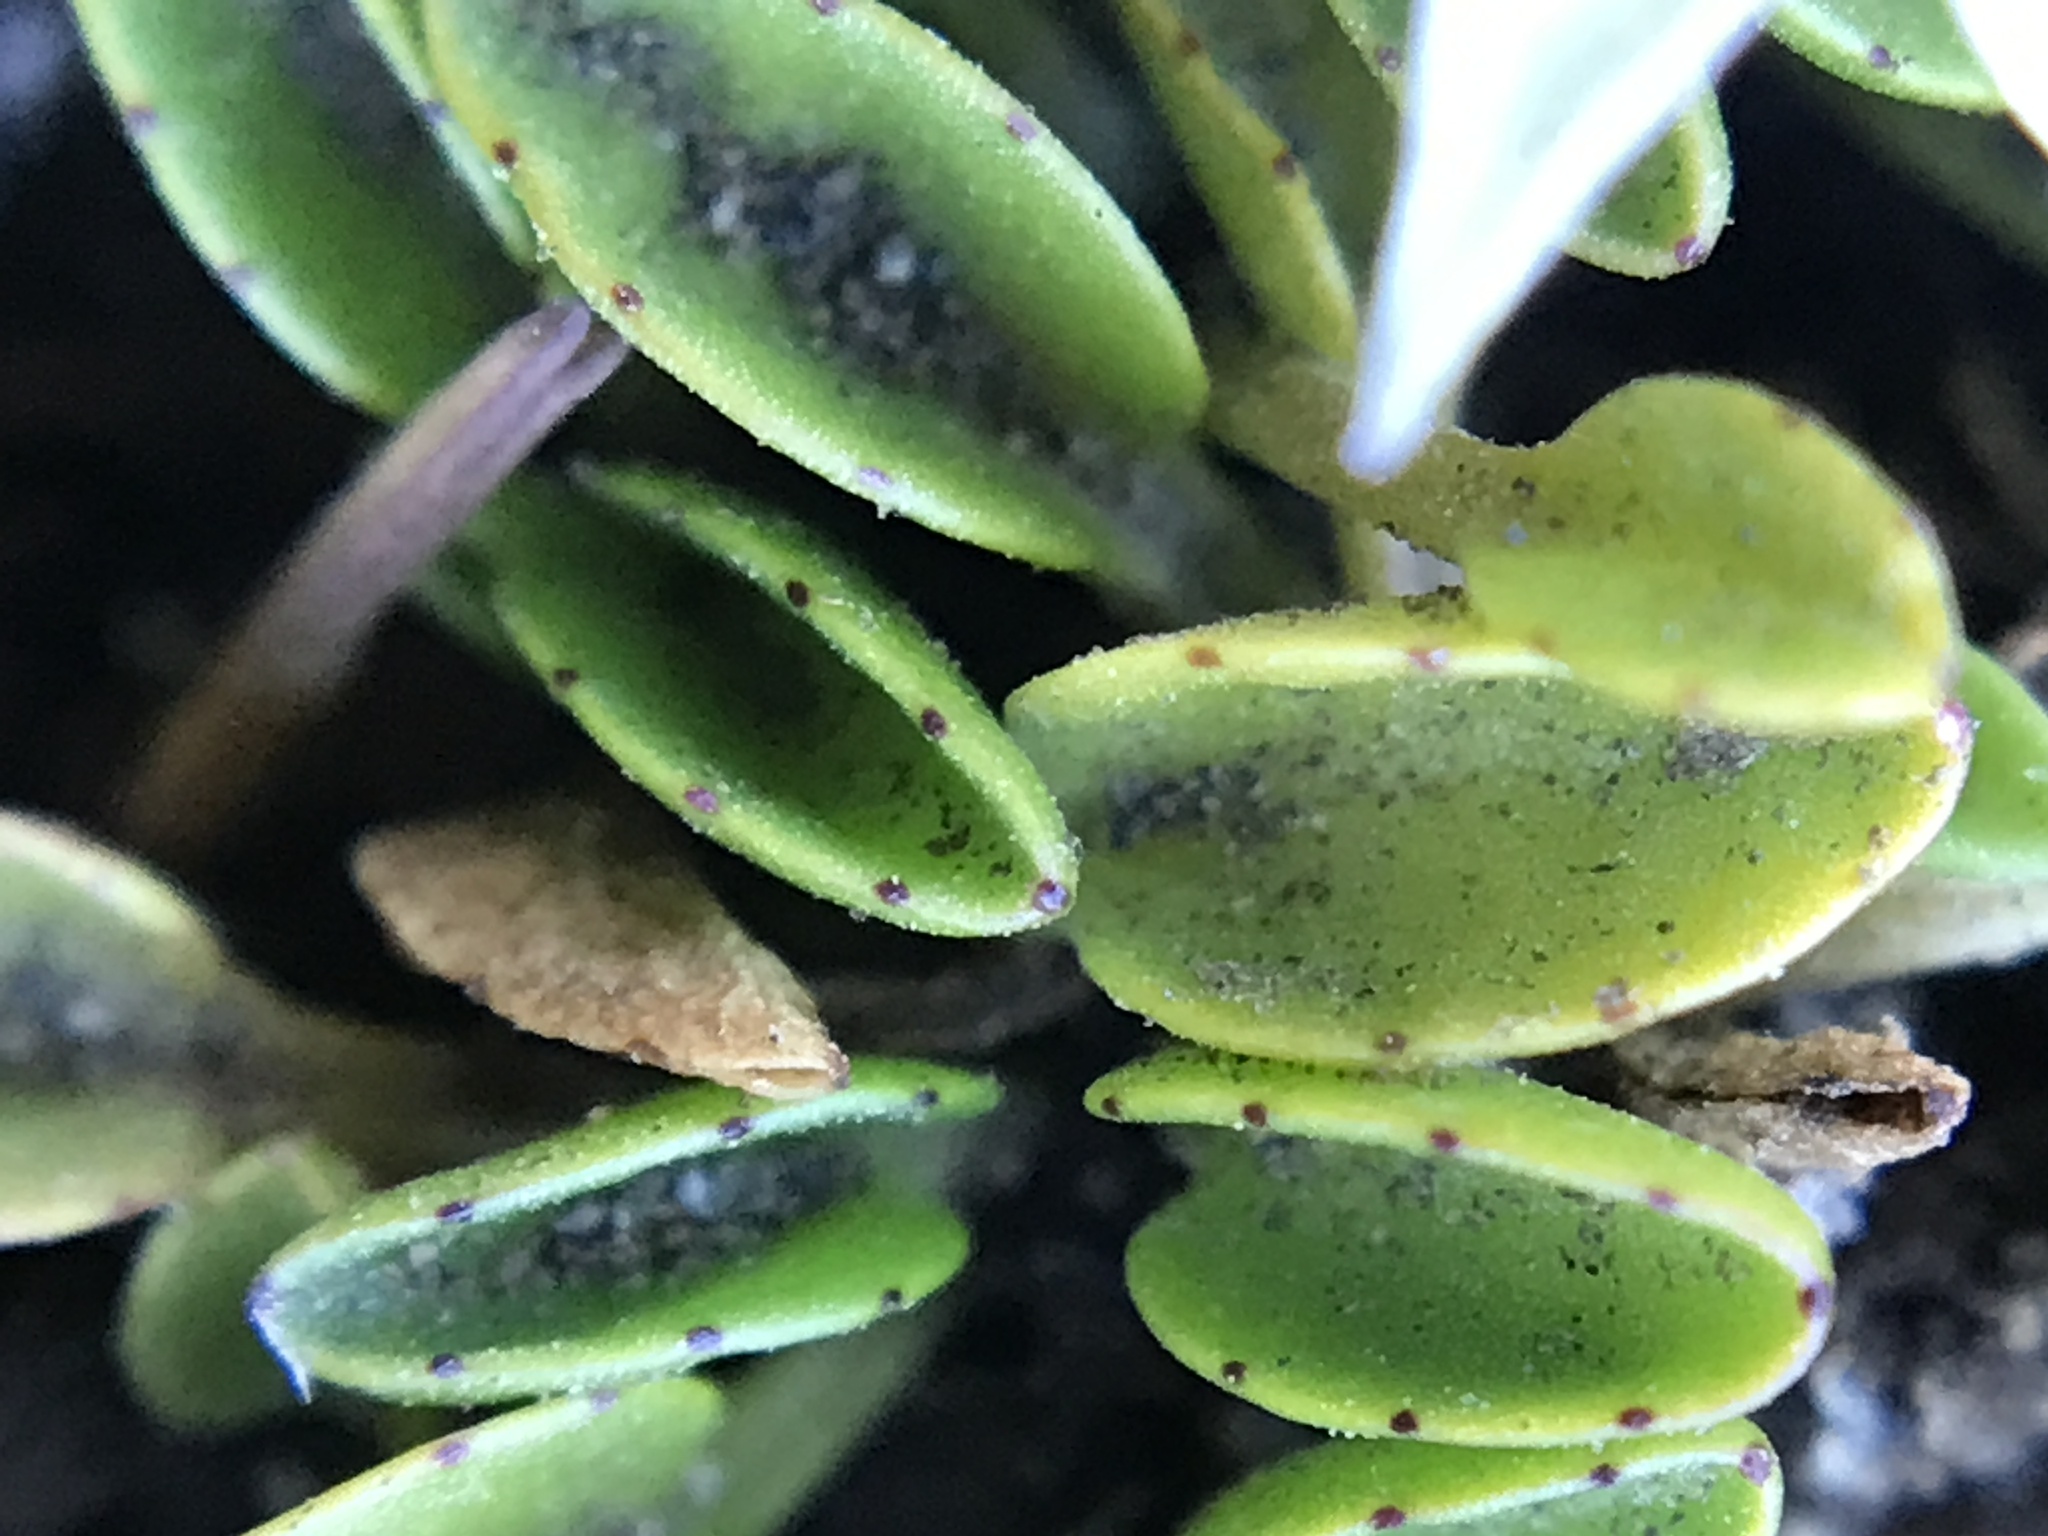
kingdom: Plantae
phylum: Tracheophyta
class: Magnoliopsida
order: Asterales
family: Campanulaceae
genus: Lobelia
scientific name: Lobelia oligophylla
